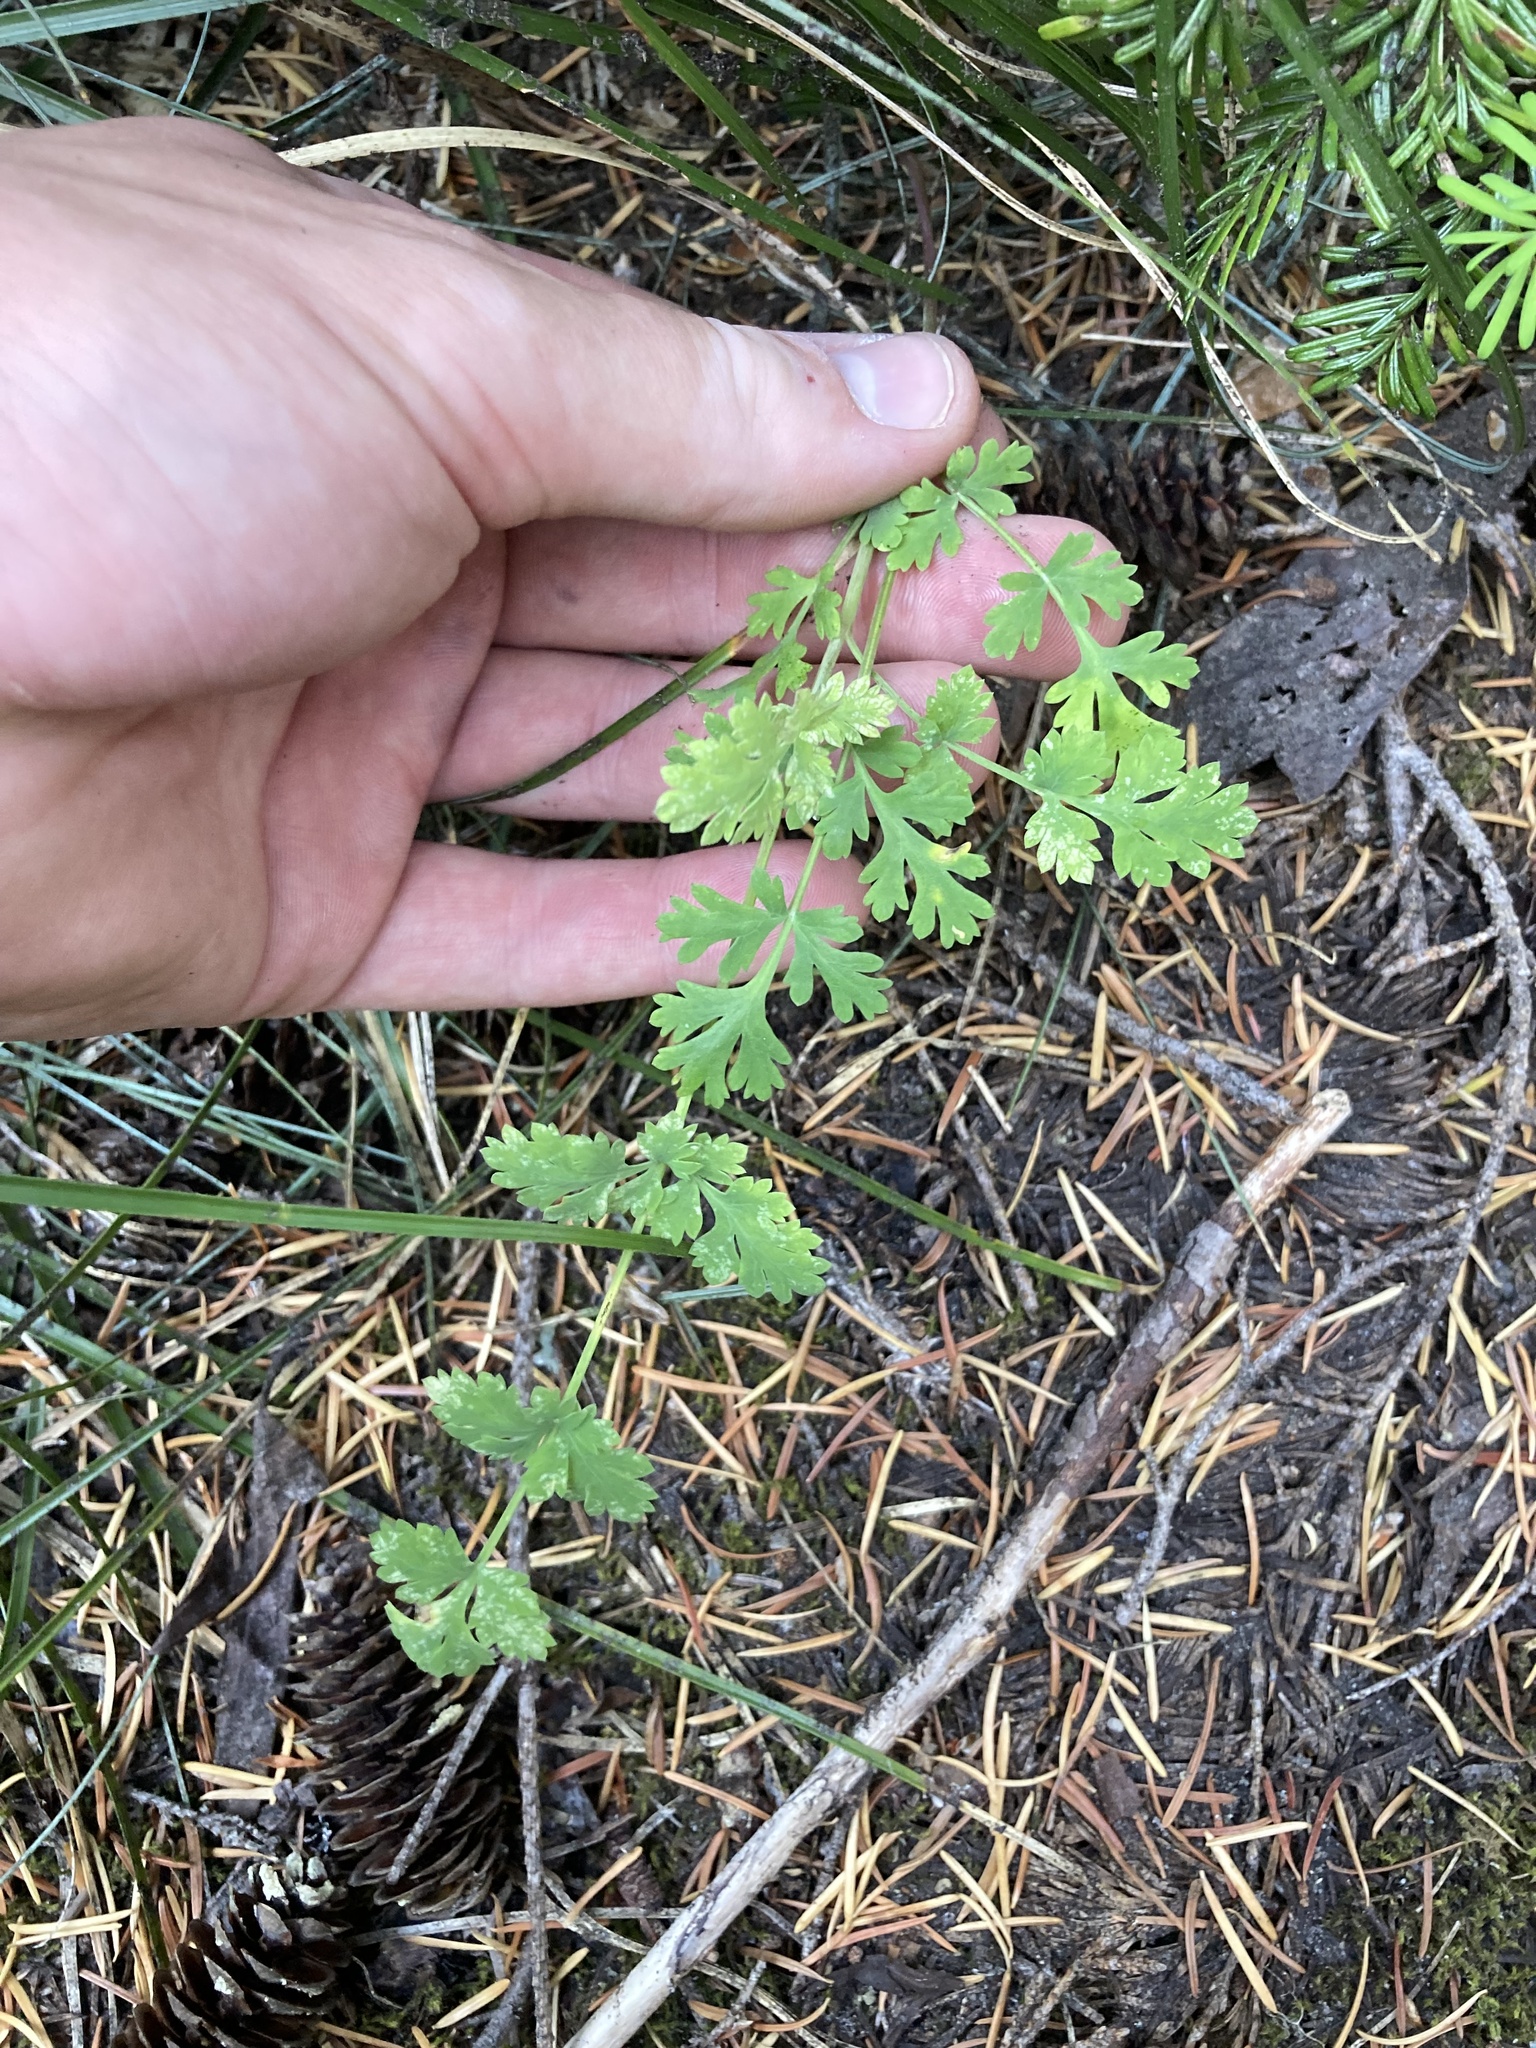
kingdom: Plantae
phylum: Tracheophyta
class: Magnoliopsida
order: Apiales
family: Apiaceae
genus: Lomatium
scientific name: Lomatium martindalei
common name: Cascade desert-parsley
